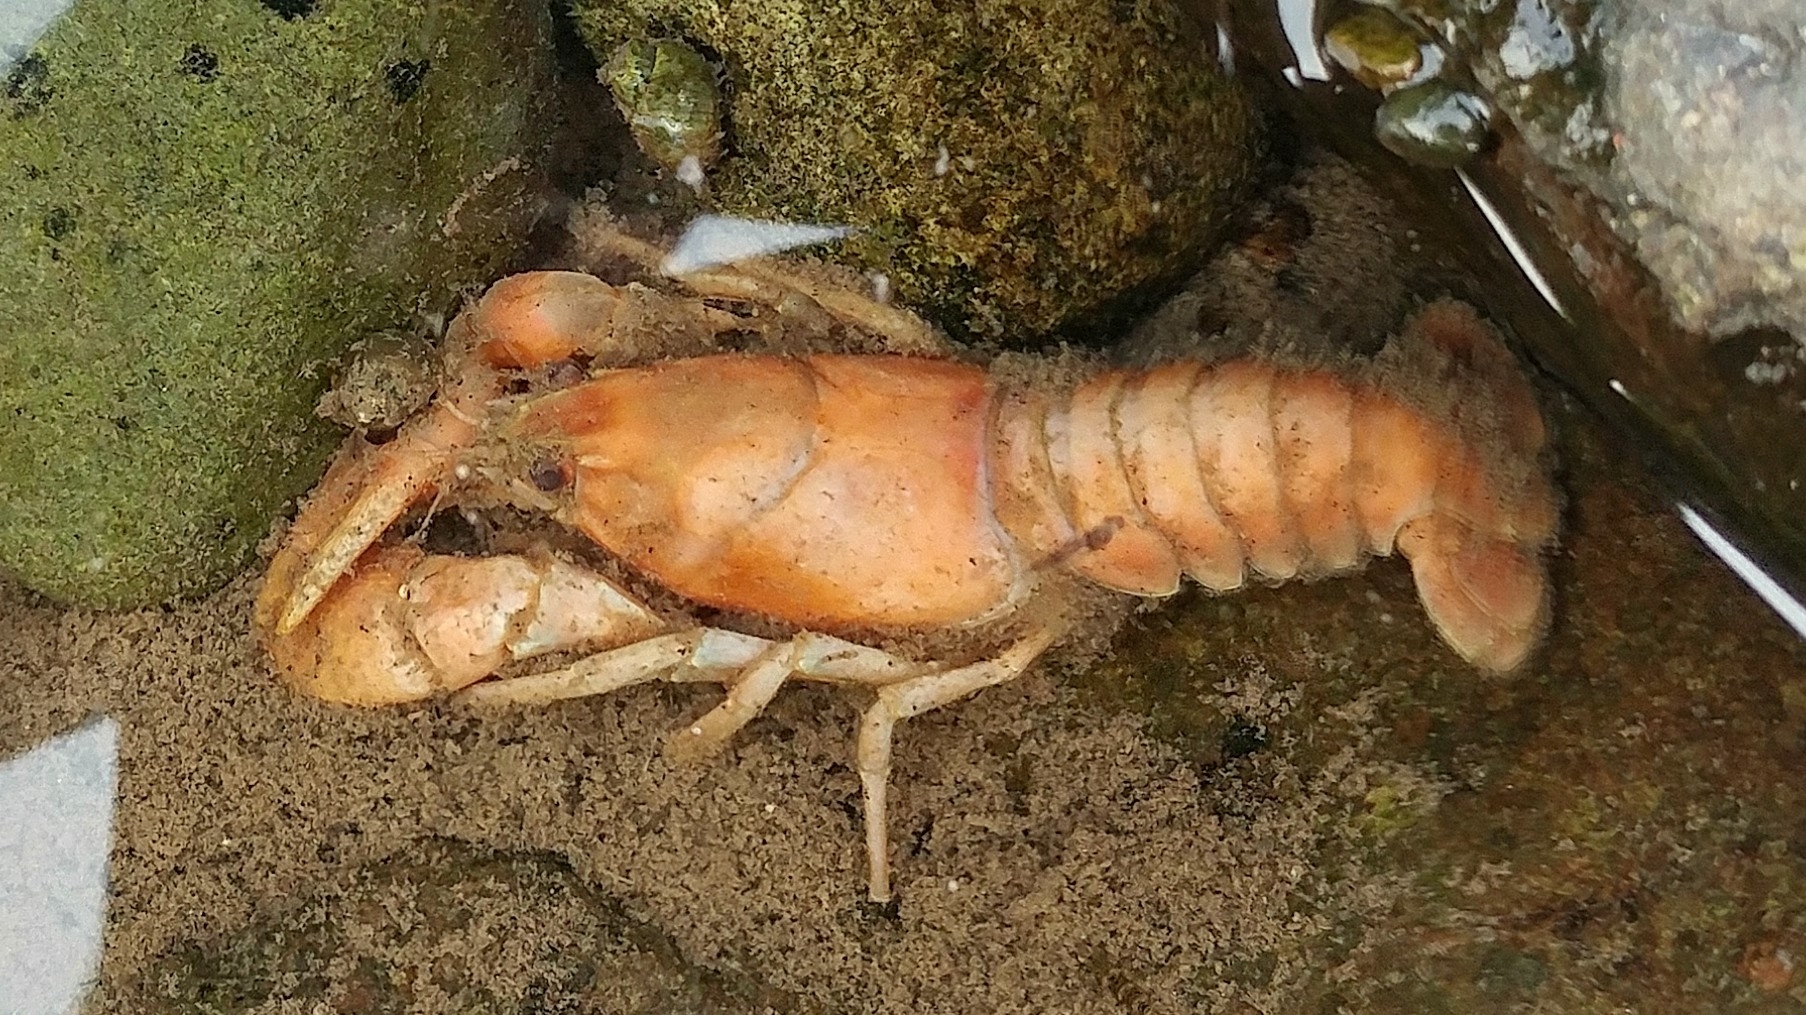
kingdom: Animalia
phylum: Arthropoda
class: Malacostraca
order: Decapoda
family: Astacidae
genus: Pacifastacus
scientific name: Pacifastacus leniusculus
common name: Signal crayfish
